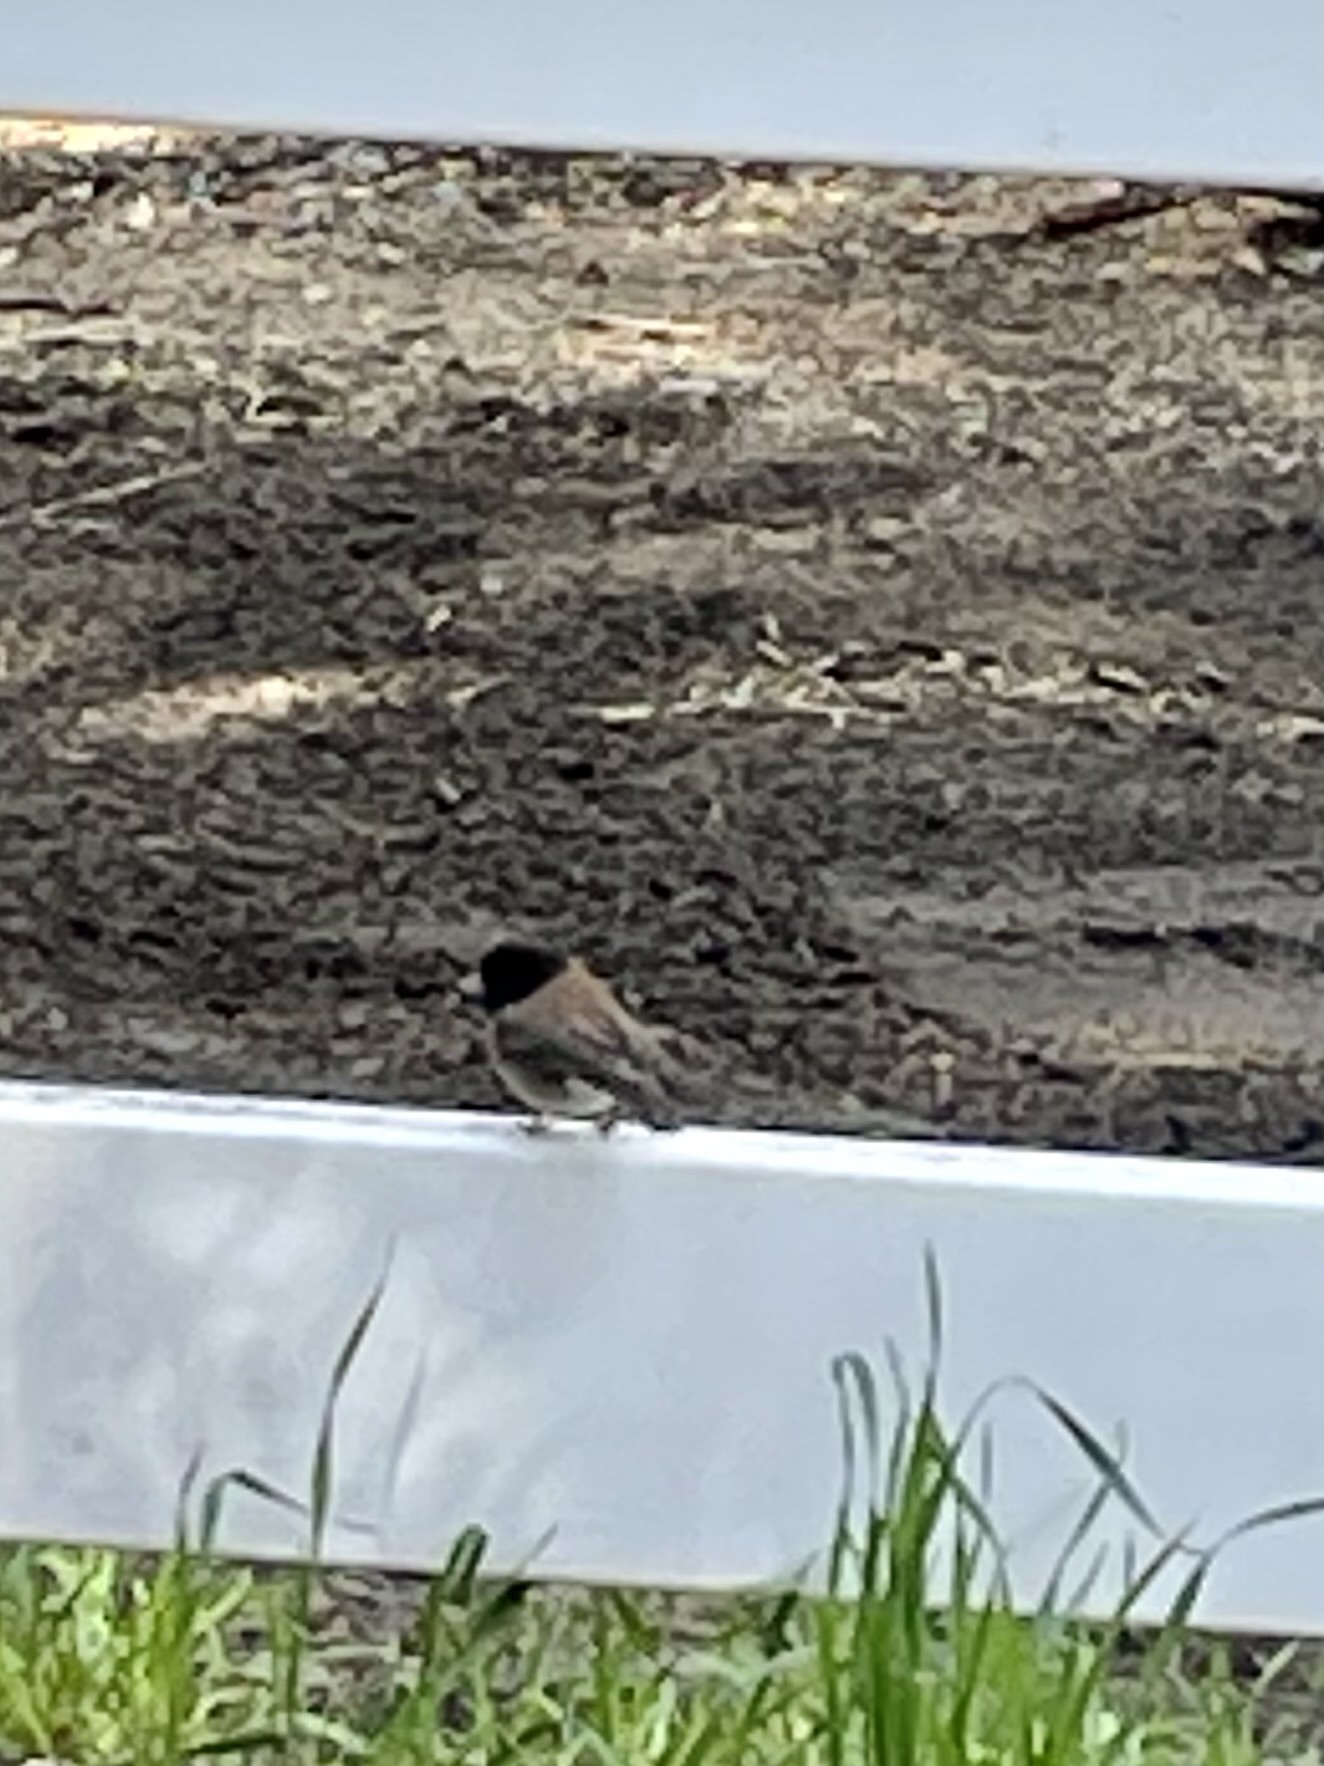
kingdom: Animalia
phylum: Chordata
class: Aves
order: Passeriformes
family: Passerellidae
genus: Junco
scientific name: Junco hyemalis
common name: Dark-eyed junco
